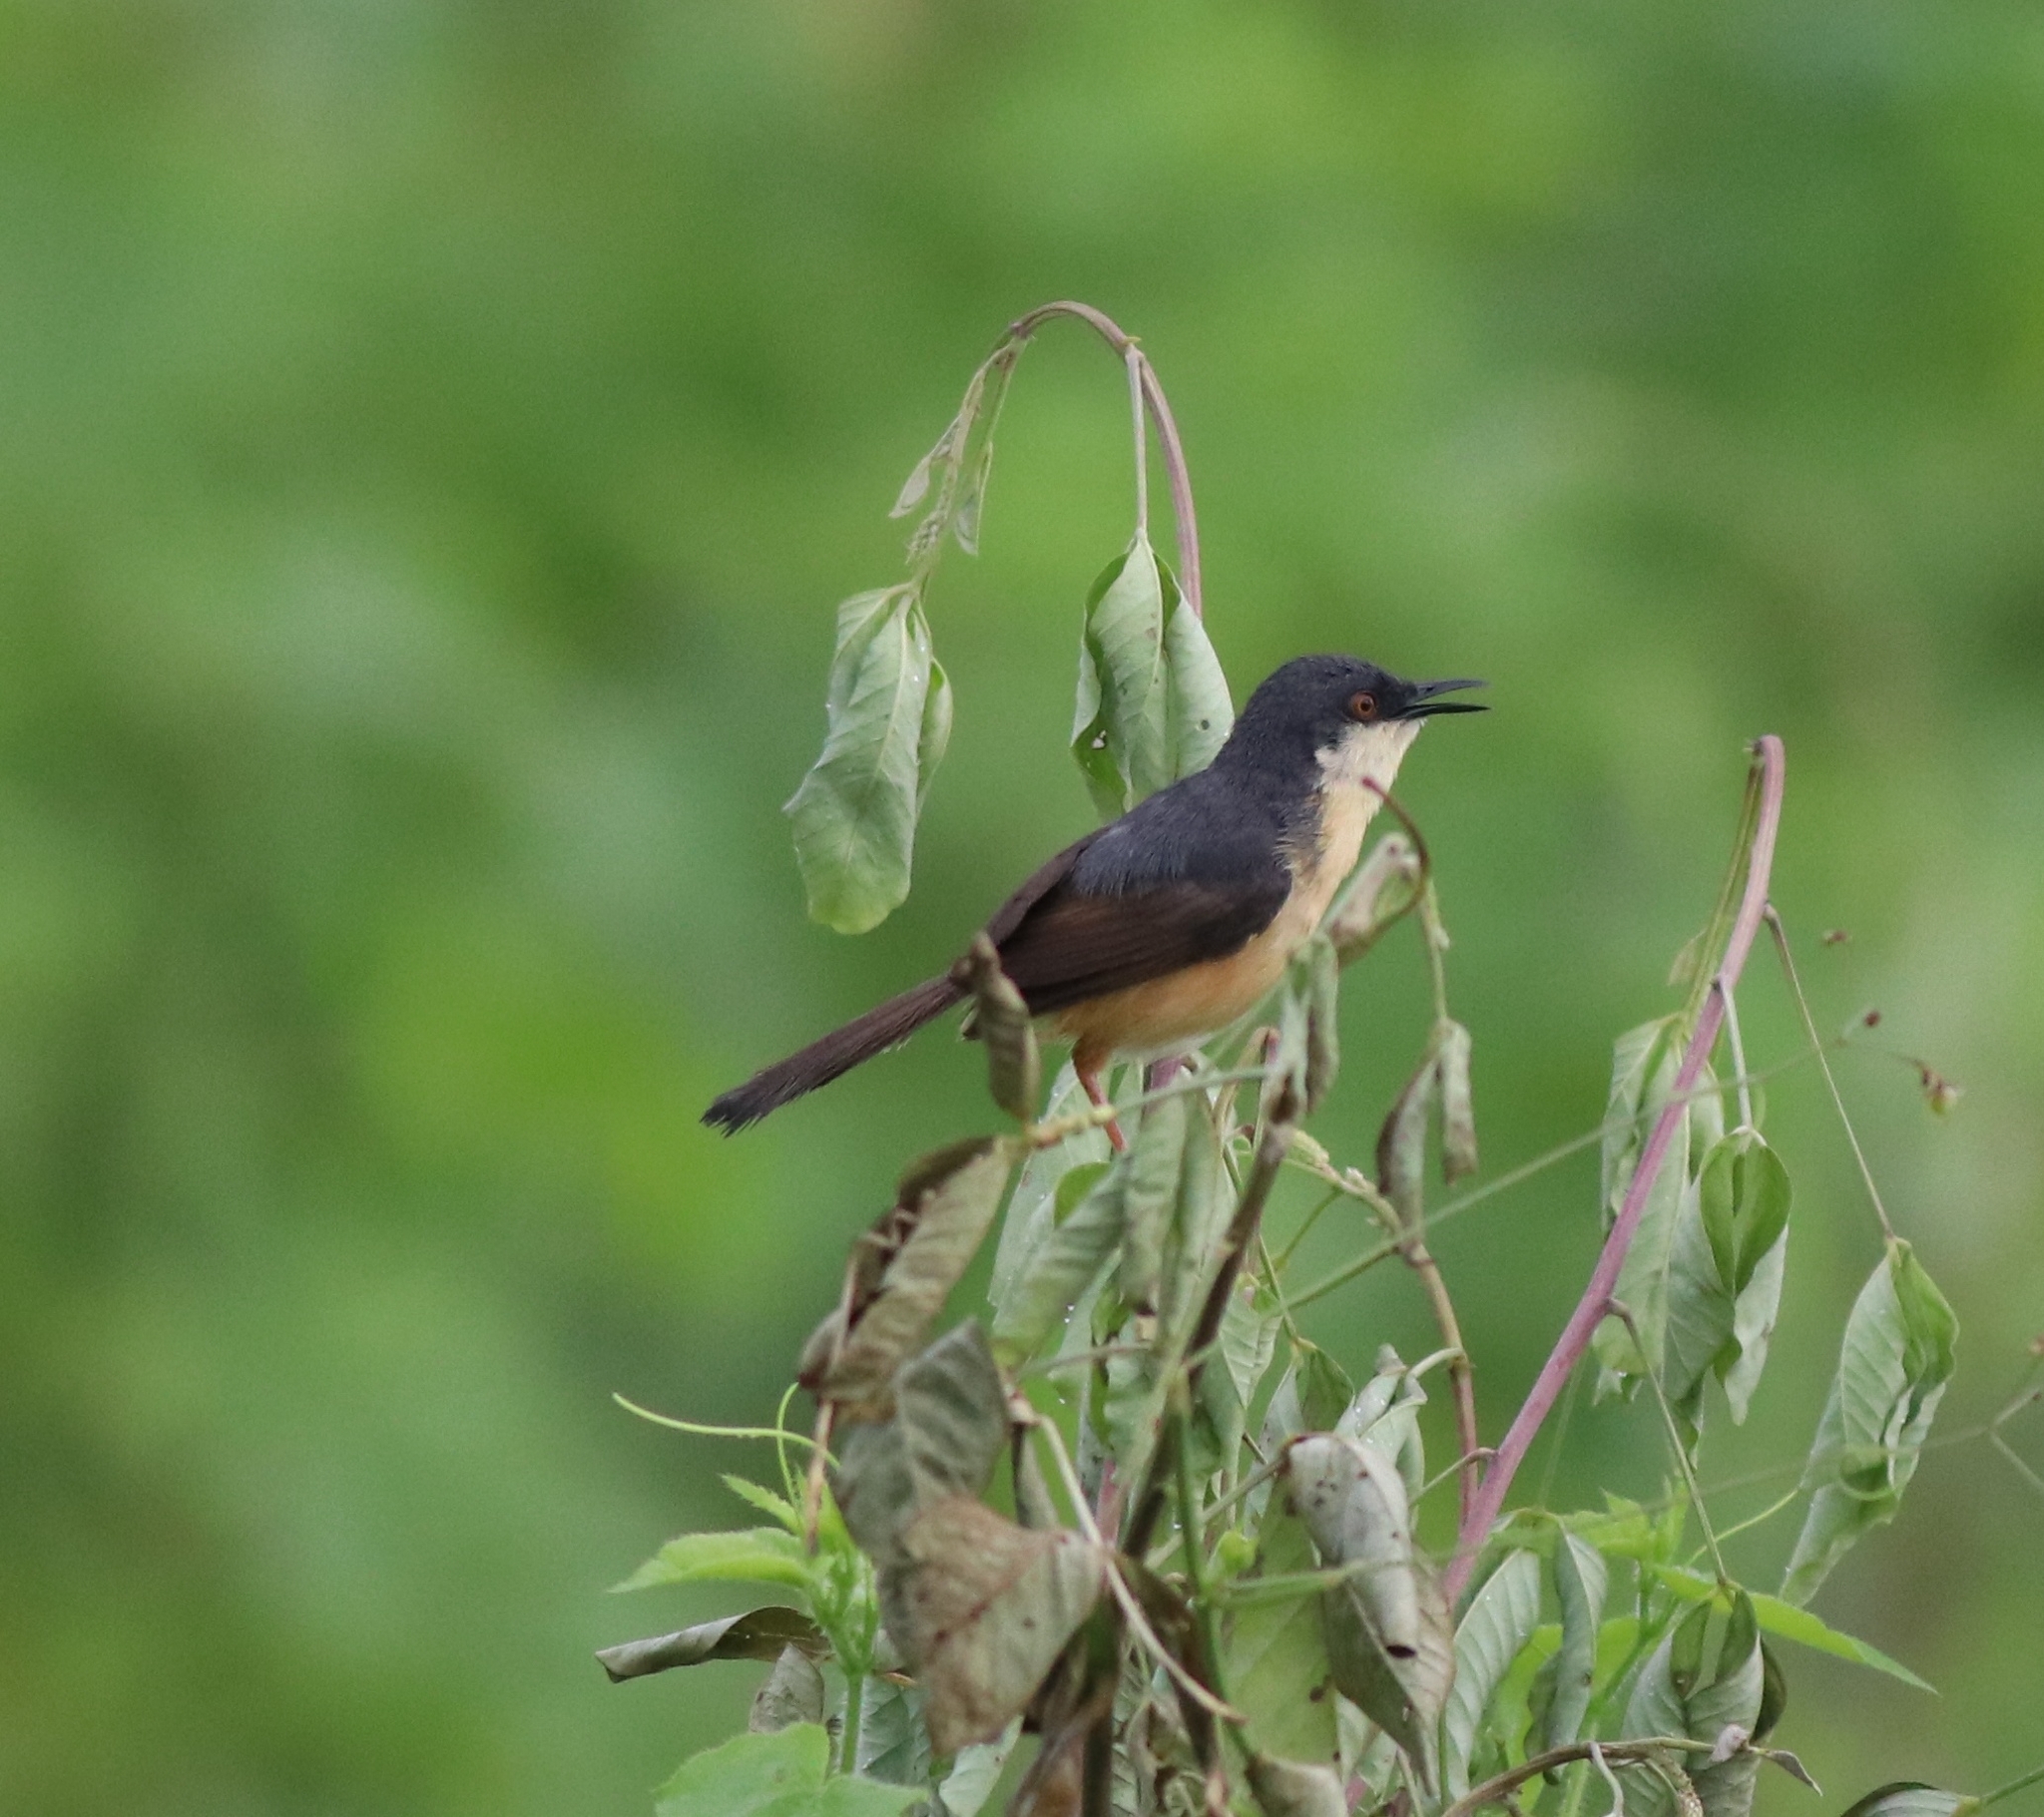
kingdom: Animalia
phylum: Chordata
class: Aves
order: Passeriformes
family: Cisticolidae
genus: Prinia
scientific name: Prinia socialis
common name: Ashy prinia
